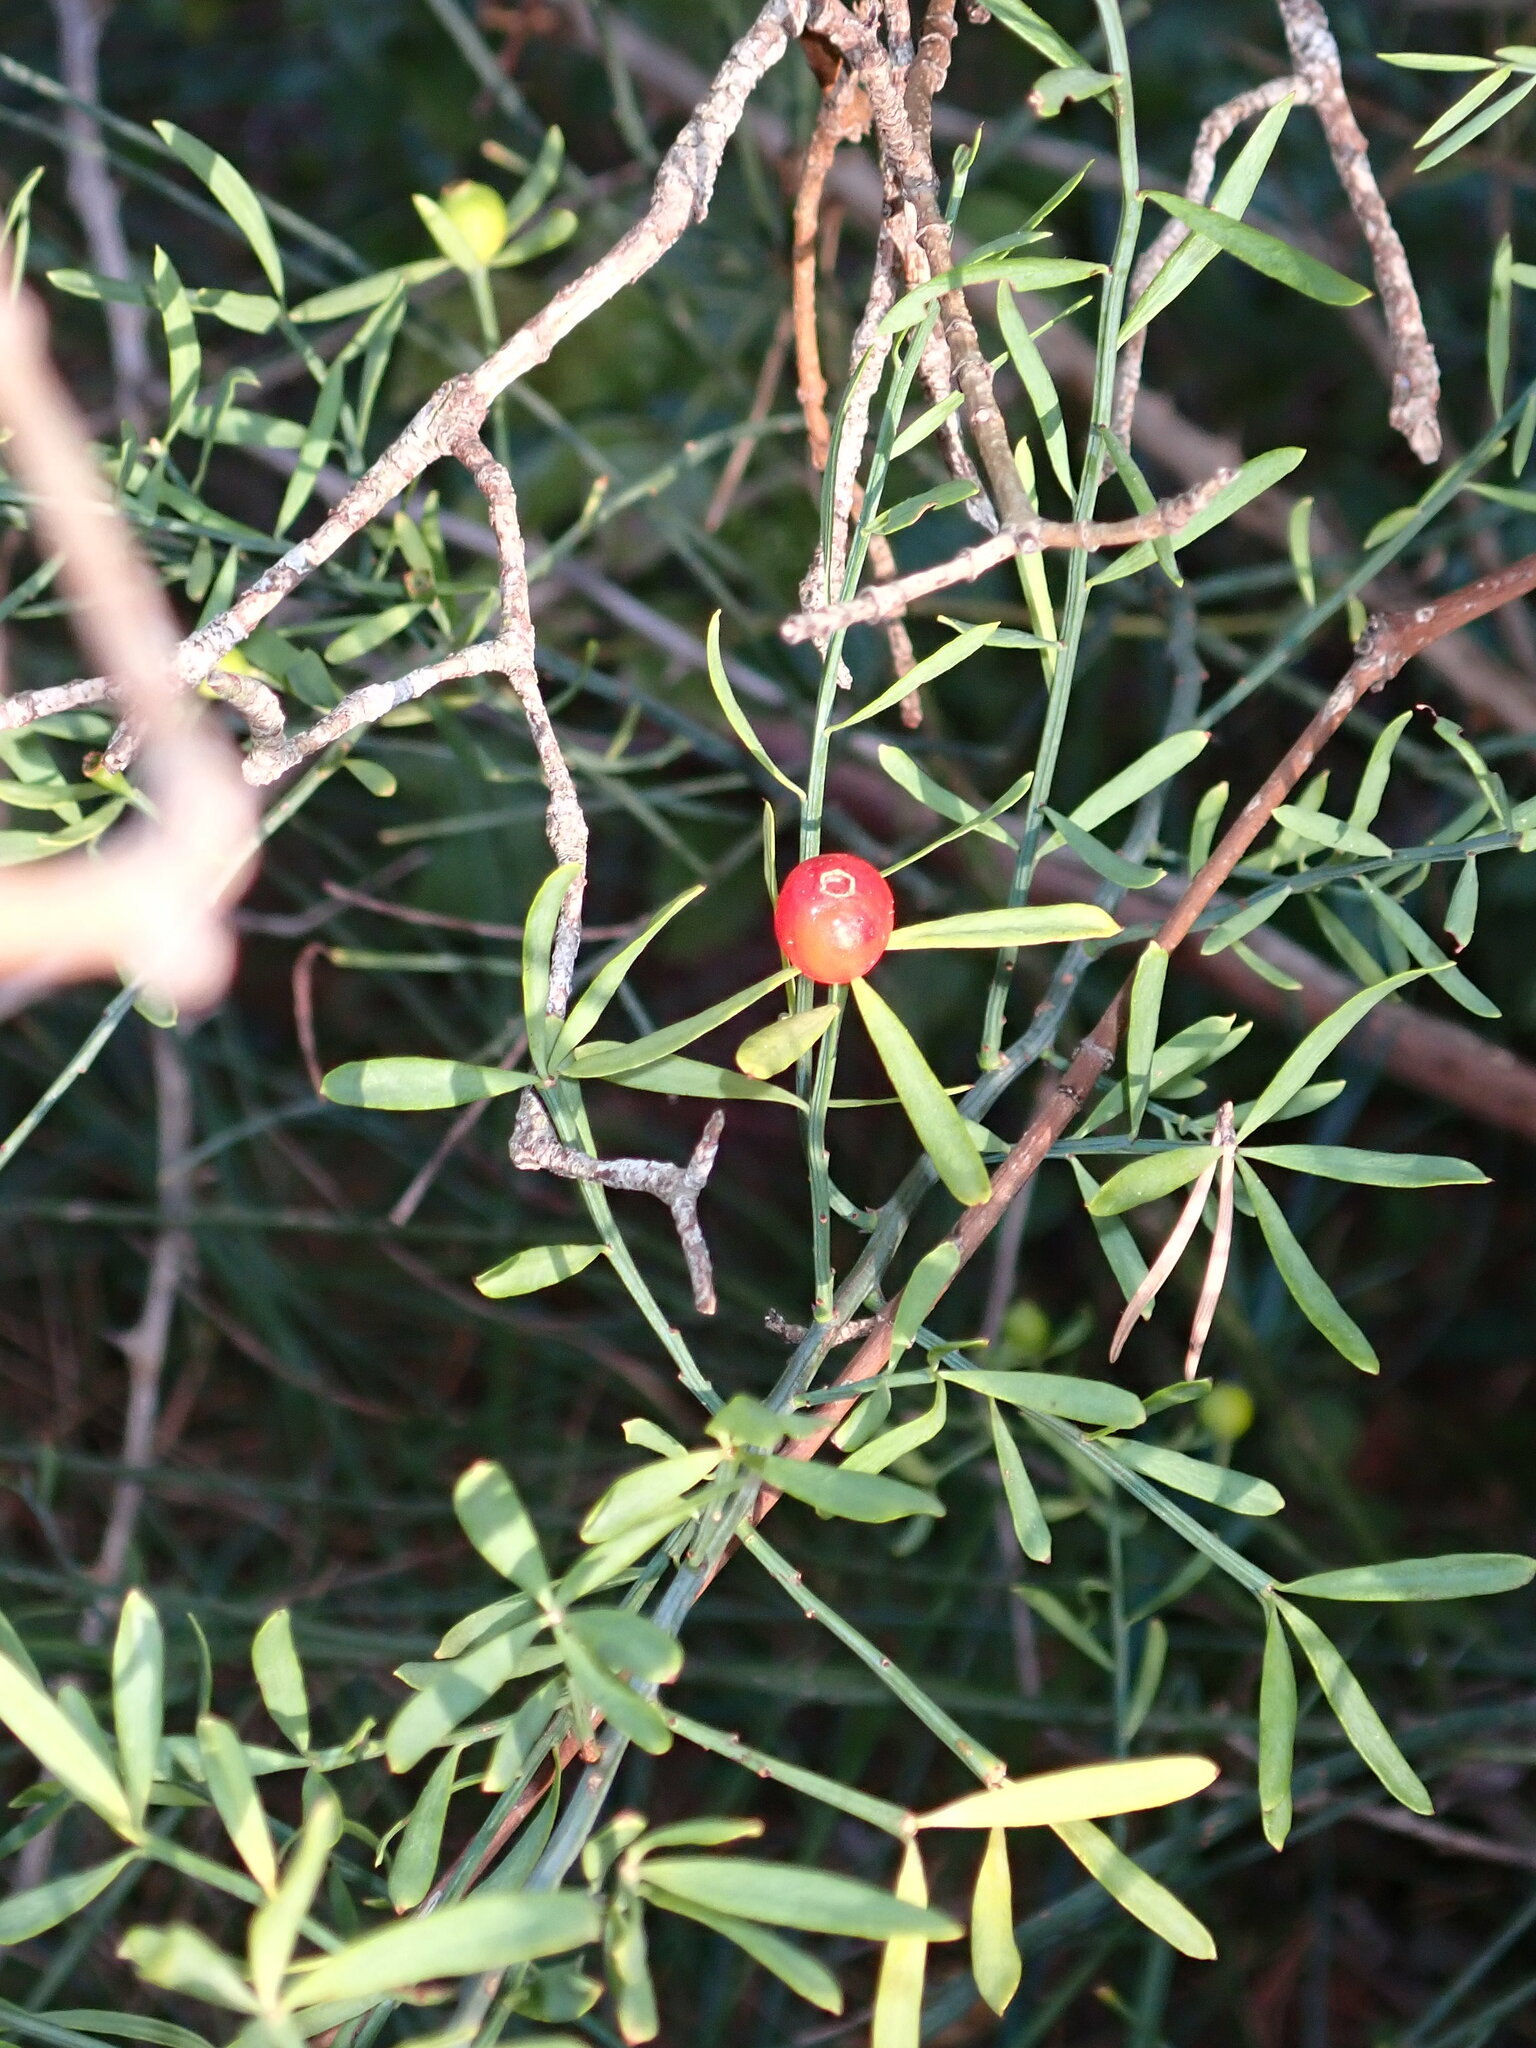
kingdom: Plantae
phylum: Tracheophyta
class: Magnoliopsida
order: Santalales
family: Santalaceae
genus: Osyris
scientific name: Osyris alba
